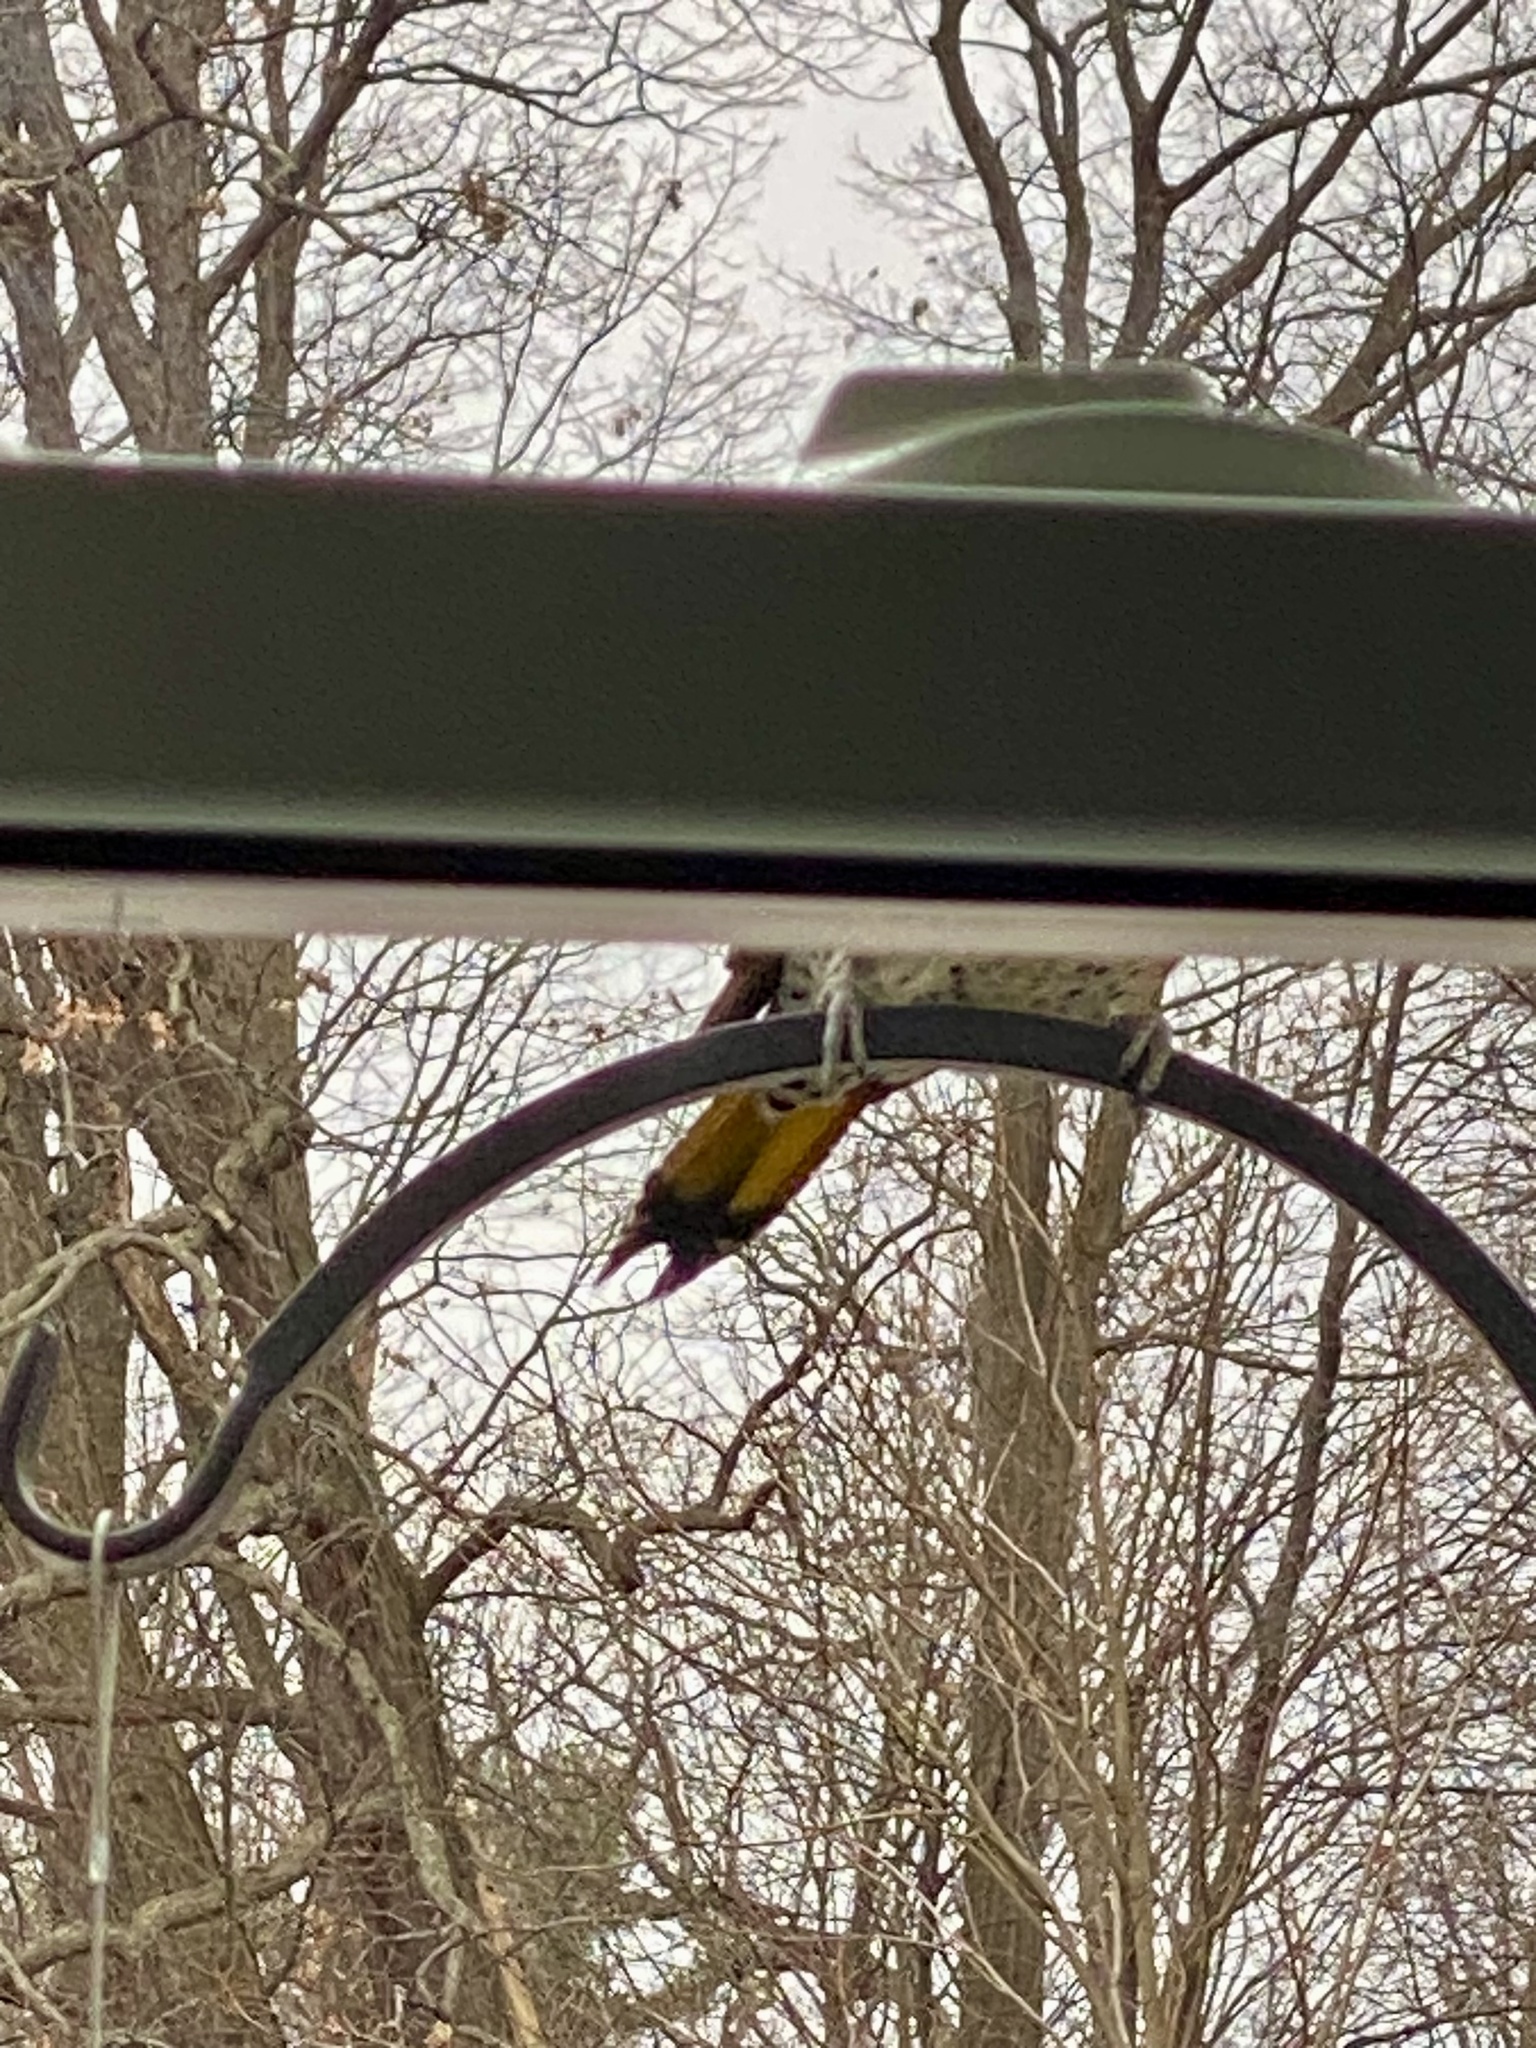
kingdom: Animalia
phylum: Chordata
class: Aves
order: Piciformes
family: Picidae
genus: Colaptes
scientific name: Colaptes auratus
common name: Northern flicker
